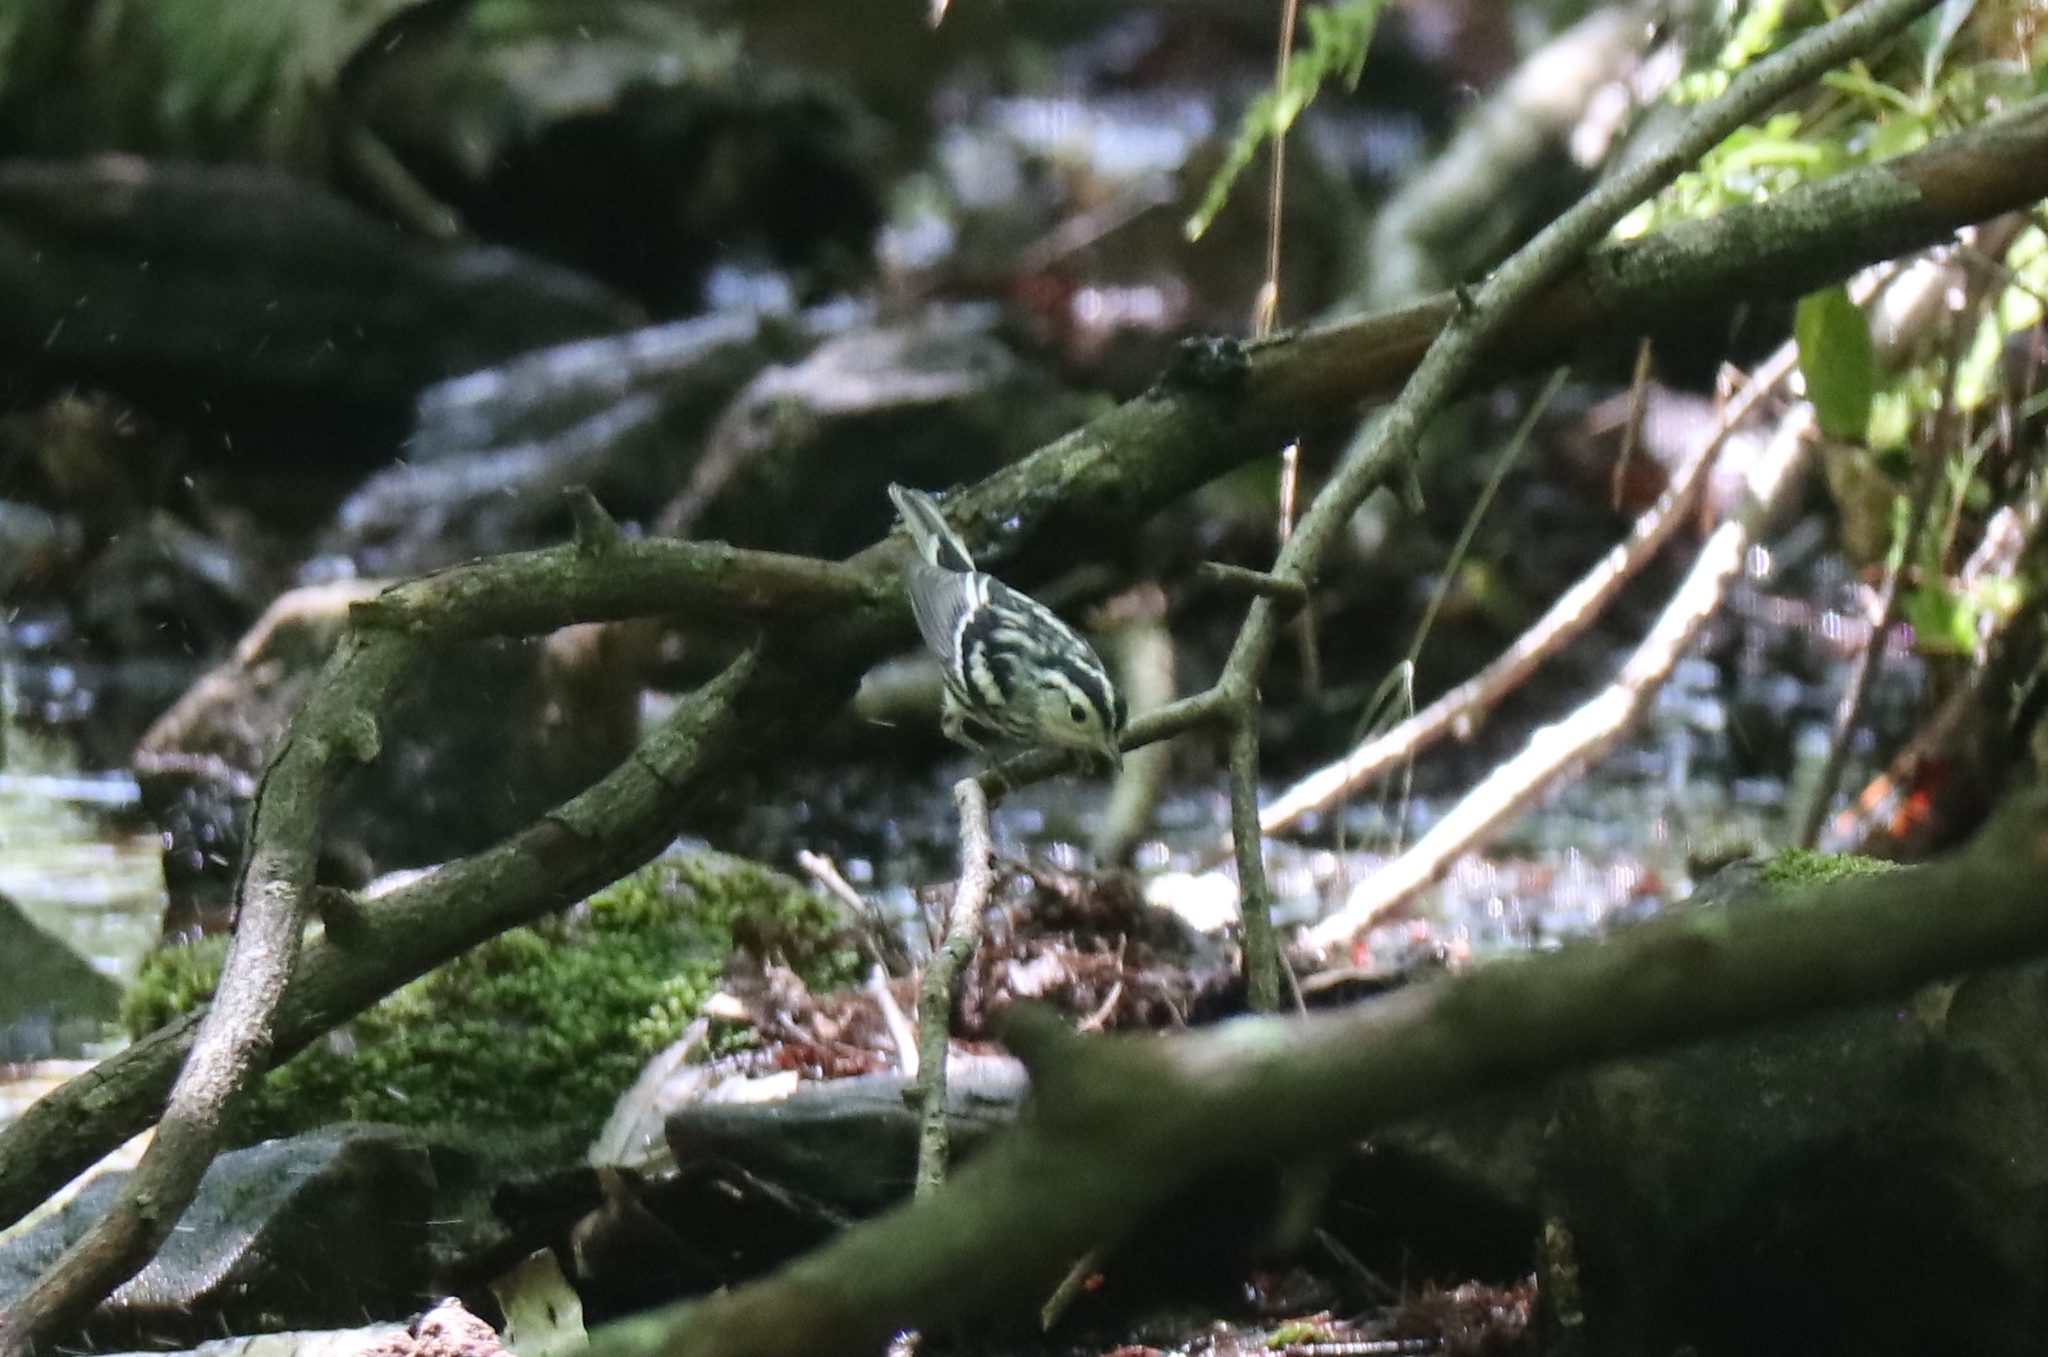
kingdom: Animalia
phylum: Chordata
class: Aves
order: Passeriformes
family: Parulidae
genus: Mniotilta
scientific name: Mniotilta varia
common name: Black-and-white warbler
